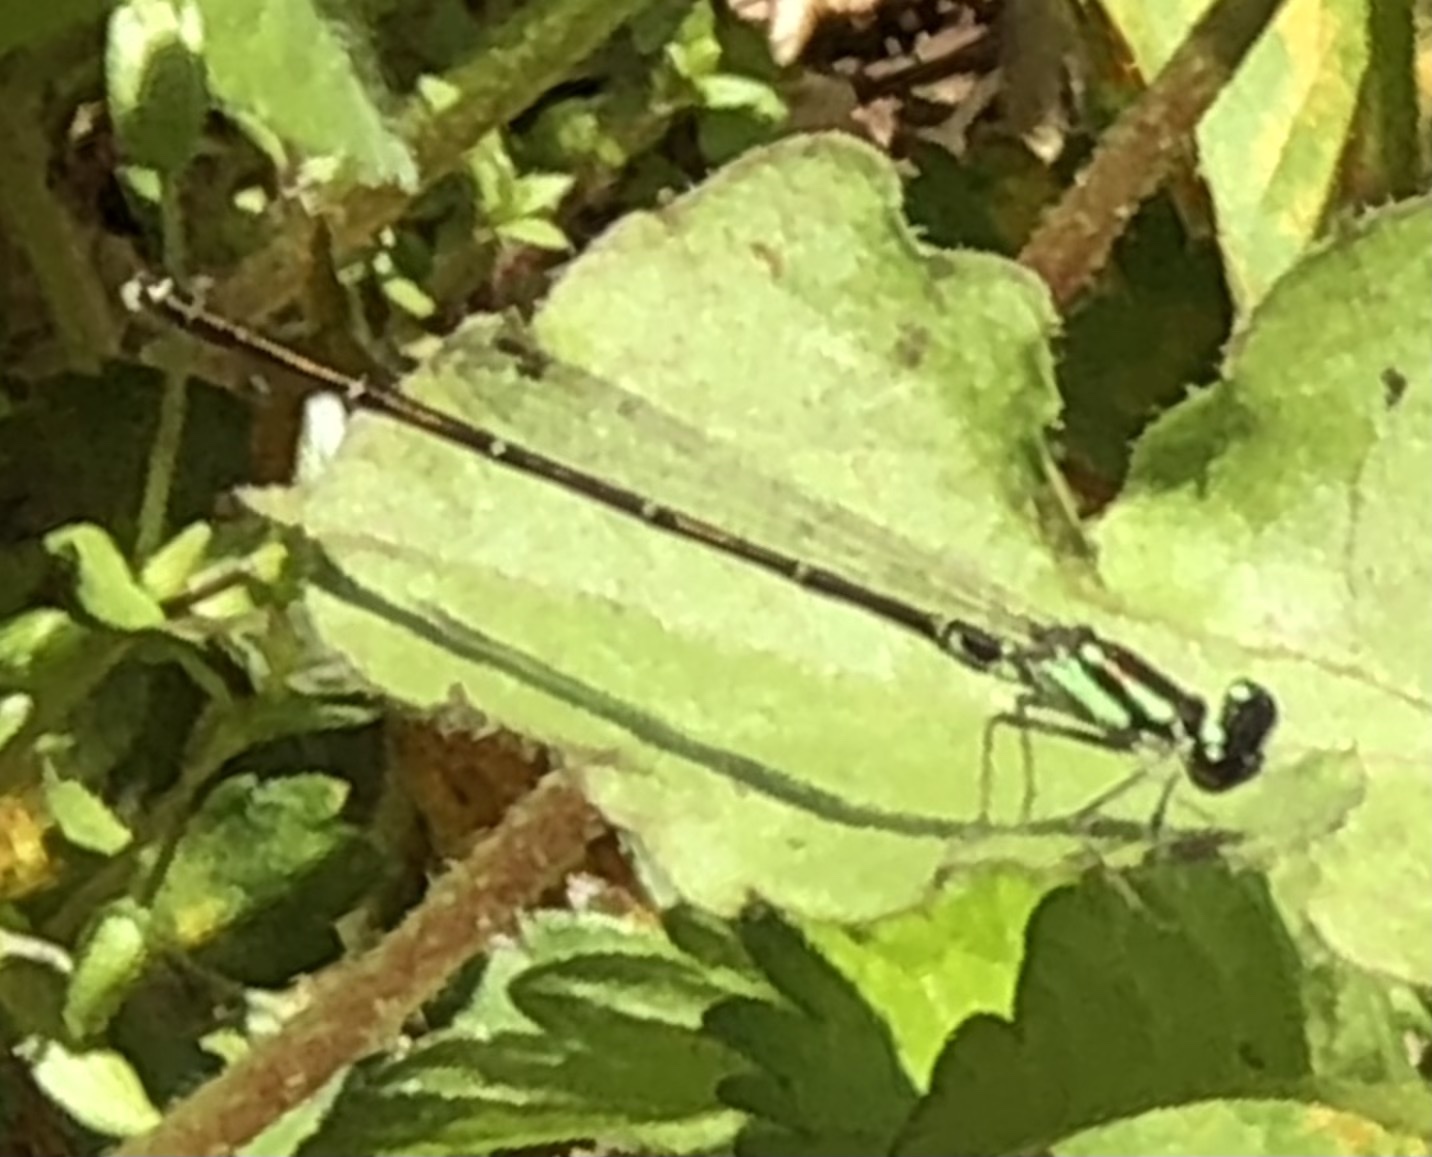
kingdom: Animalia
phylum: Arthropoda
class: Insecta
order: Odonata
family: Coenagrionidae
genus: Ischnura
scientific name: Ischnura posita
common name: Fragile forktail
